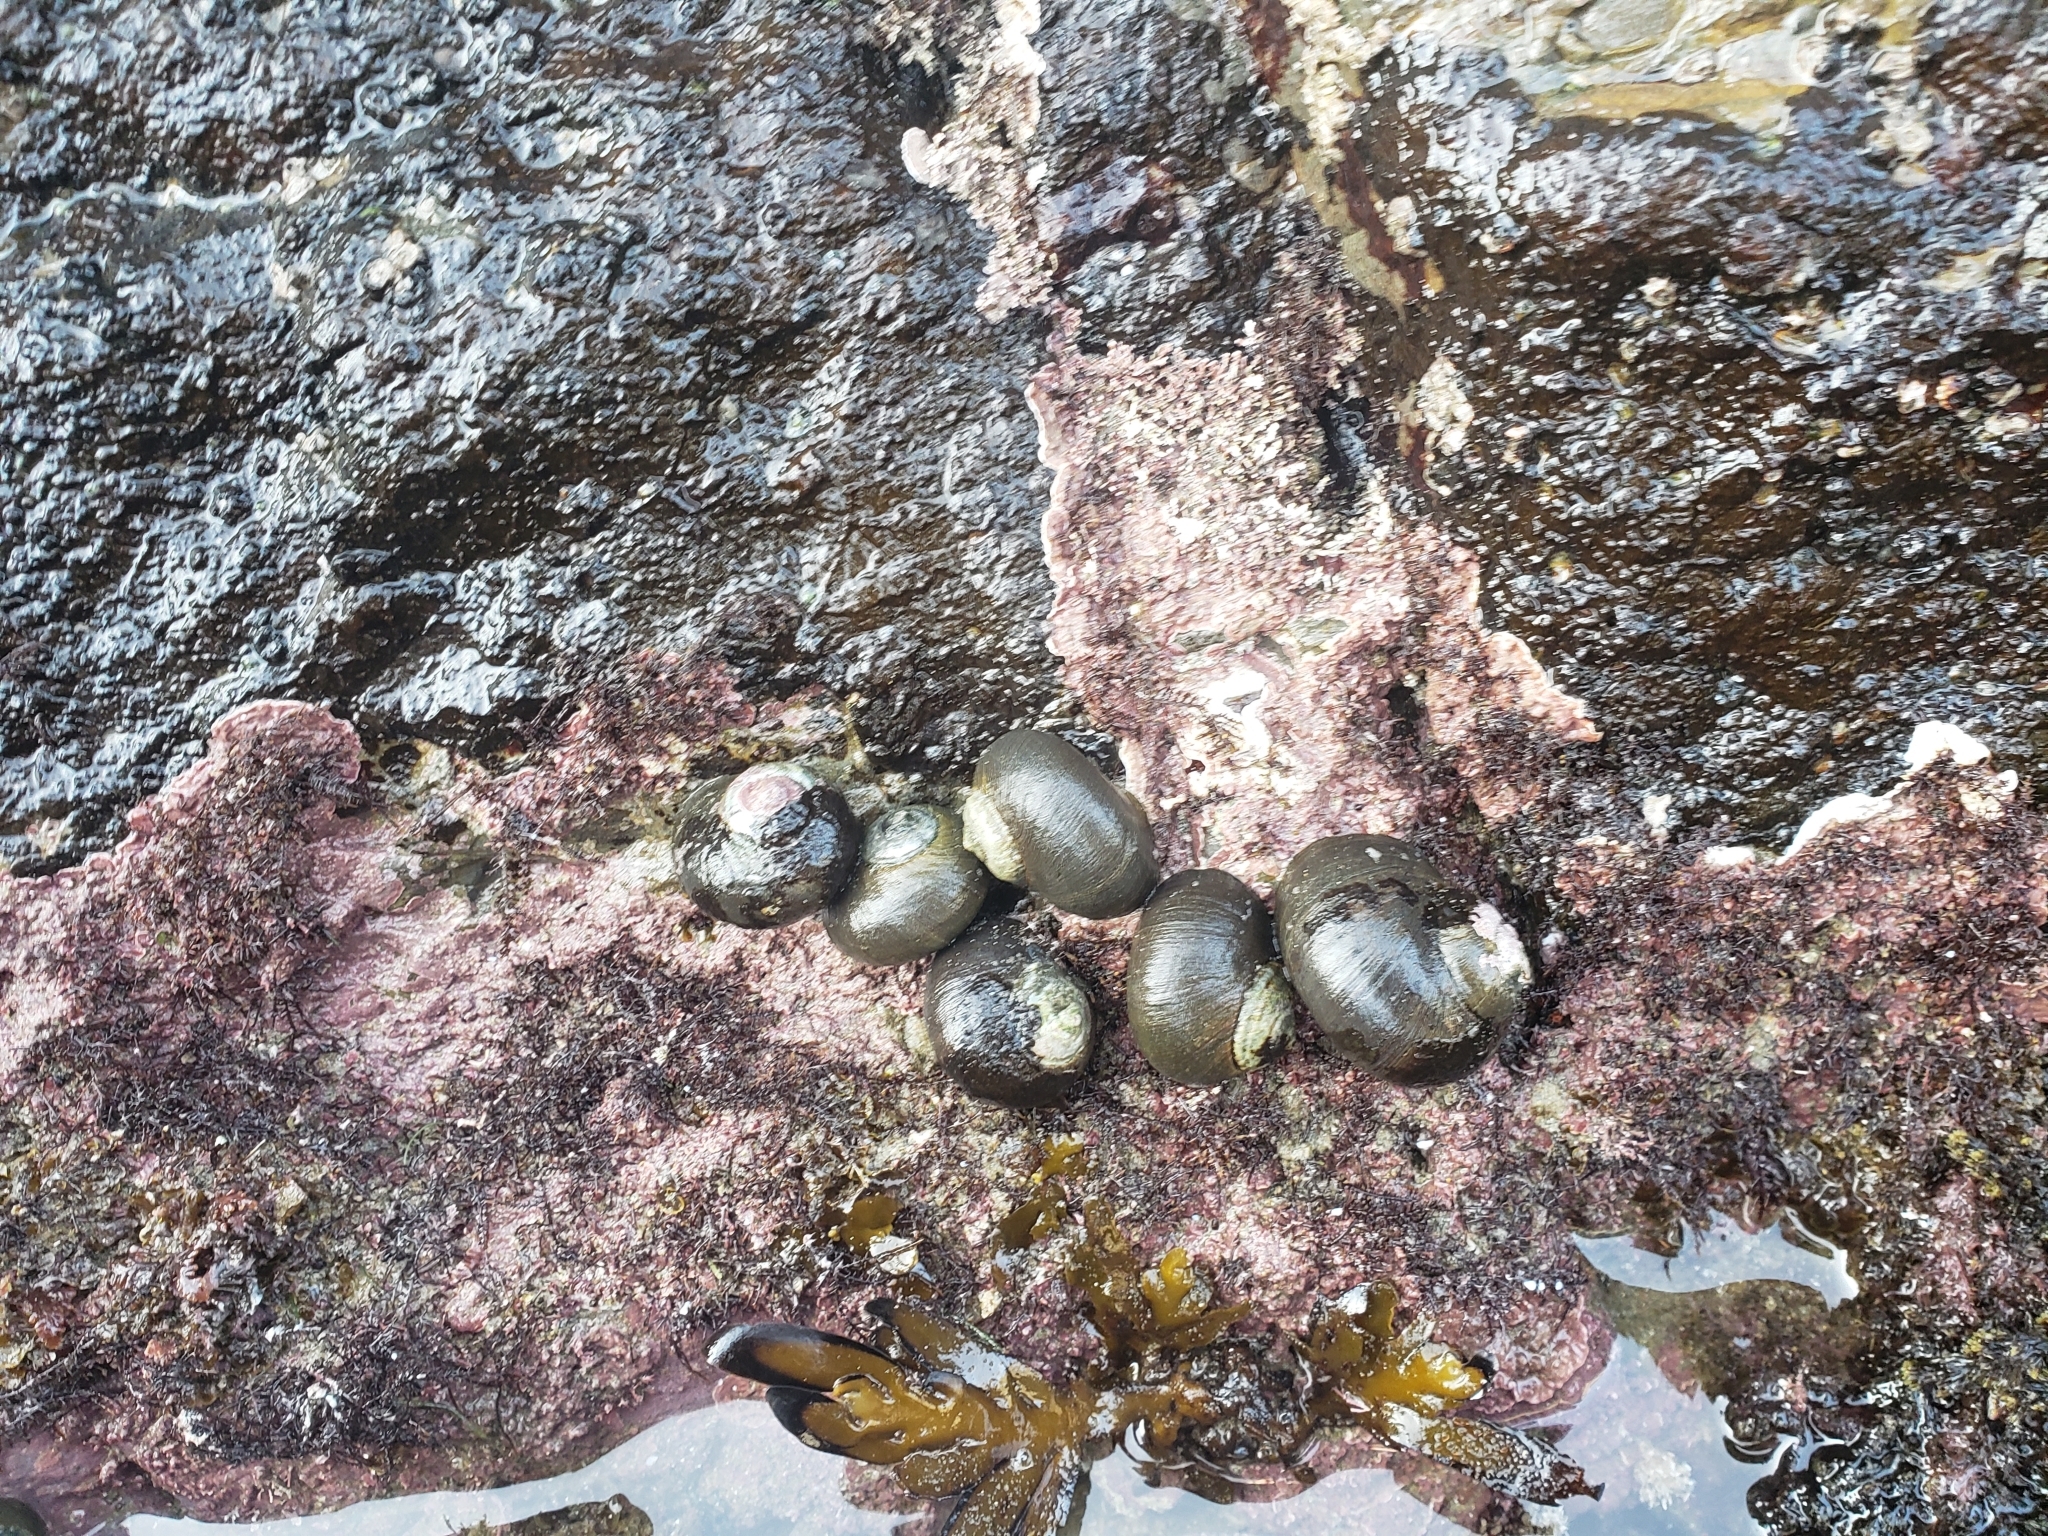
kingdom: Animalia
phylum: Mollusca
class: Gastropoda
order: Trochida
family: Turbinidae
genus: Lunella
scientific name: Lunella smaragda
